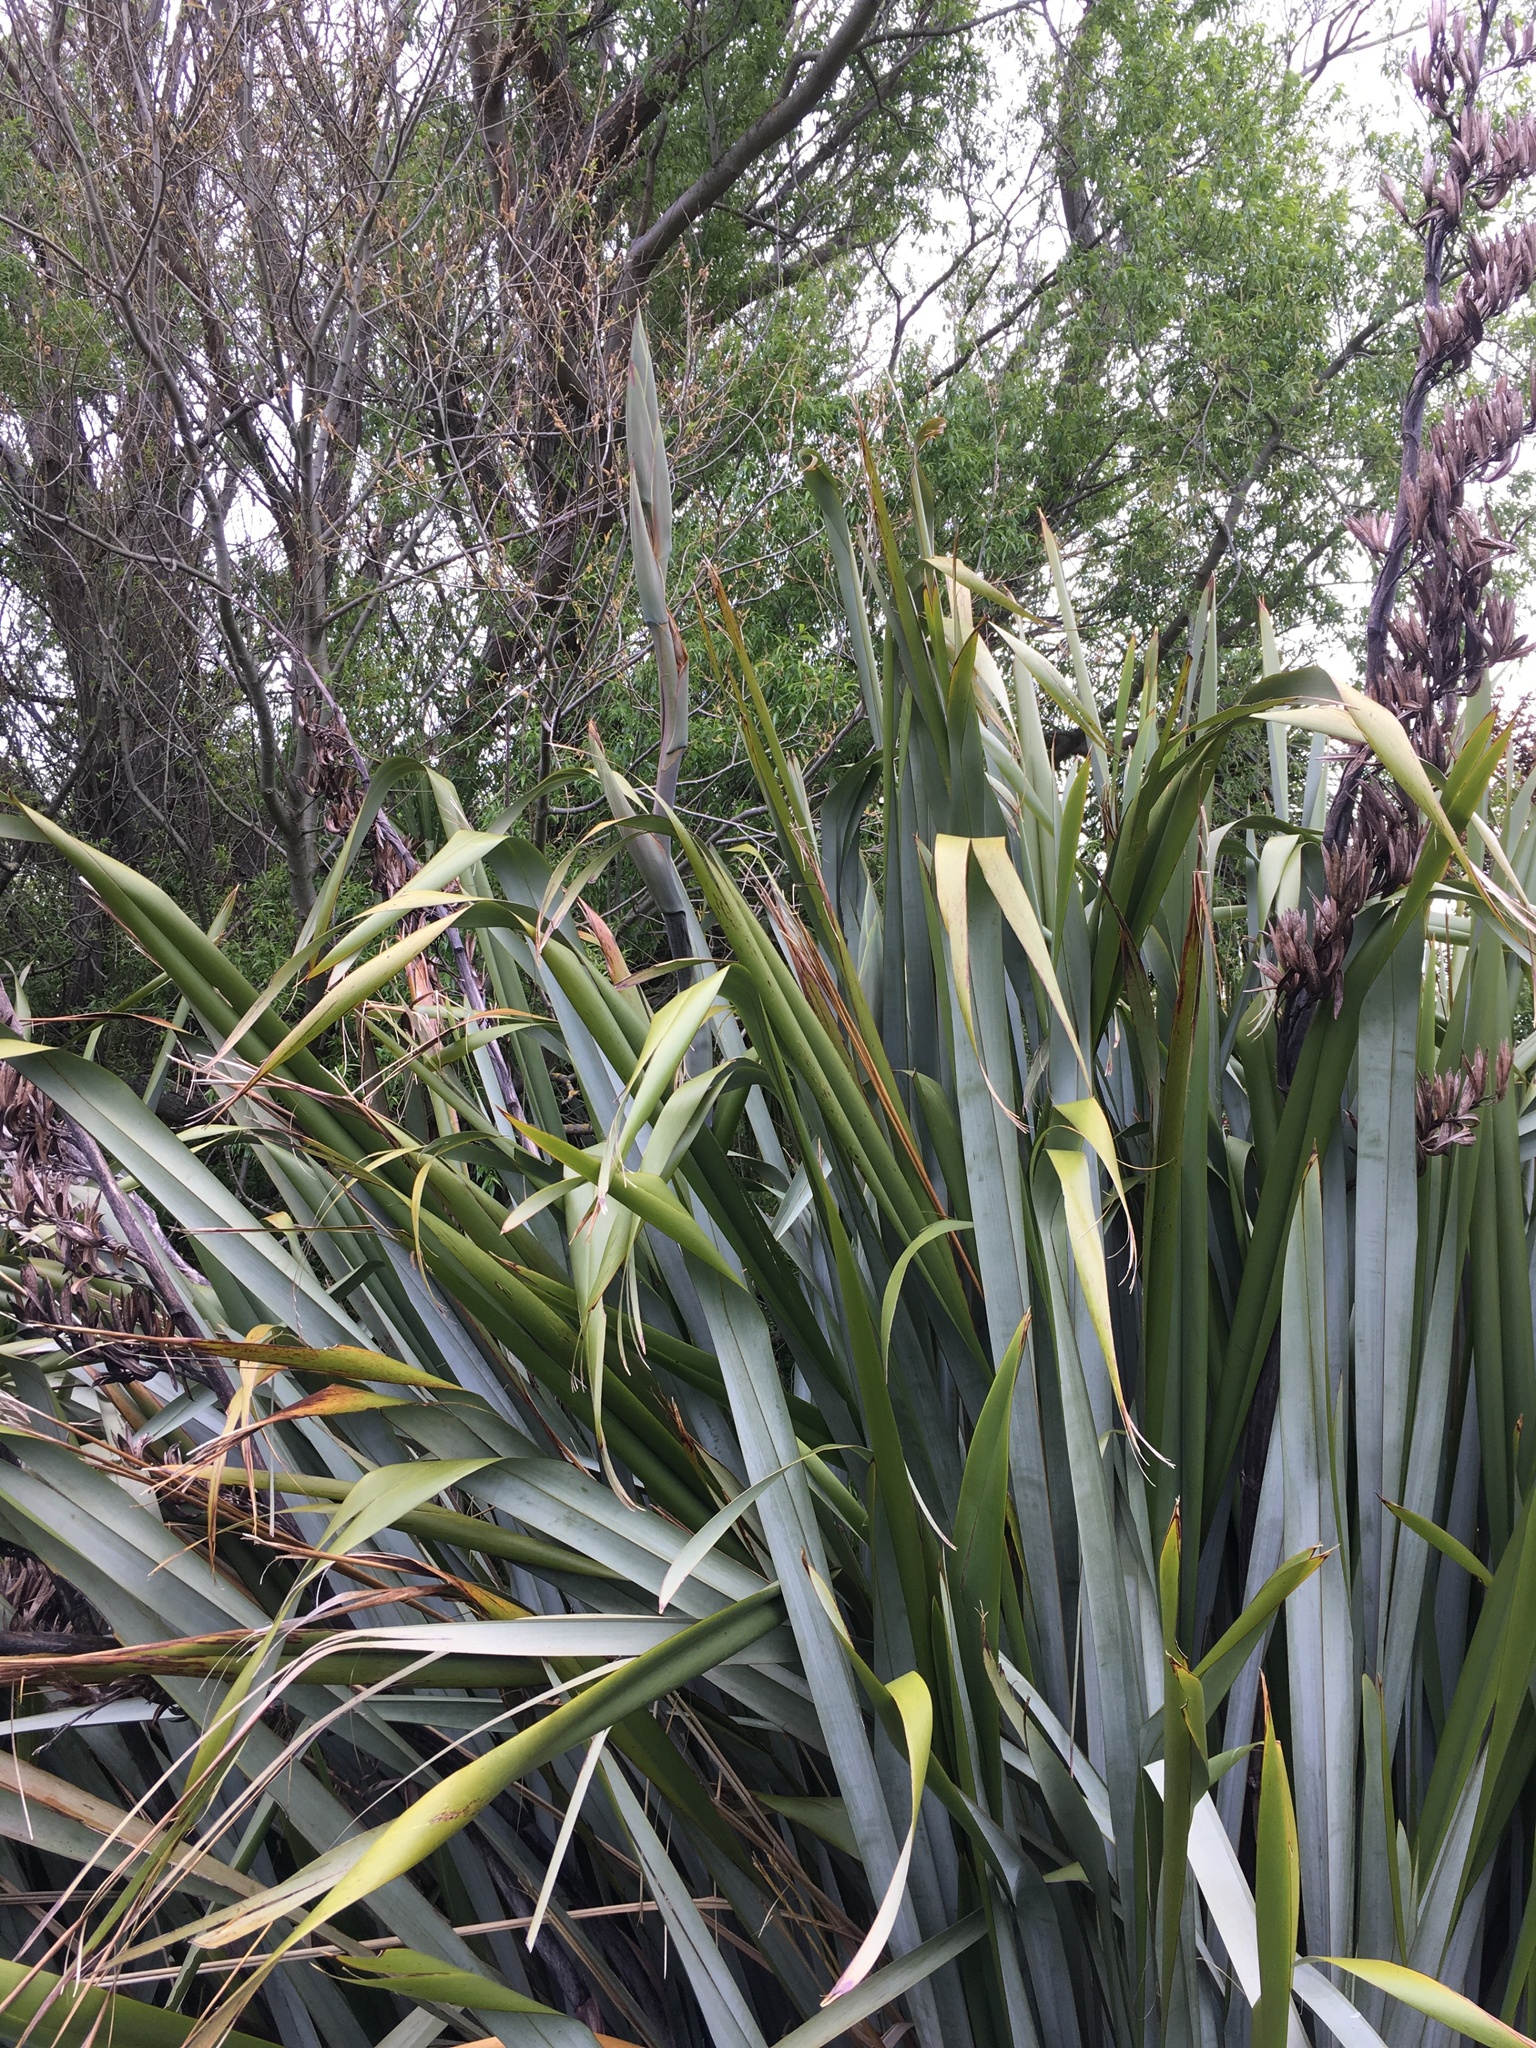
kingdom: Plantae
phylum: Tracheophyta
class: Liliopsida
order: Asparagales
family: Asphodelaceae
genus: Phormium
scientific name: Phormium tenax
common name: New zealand flax
